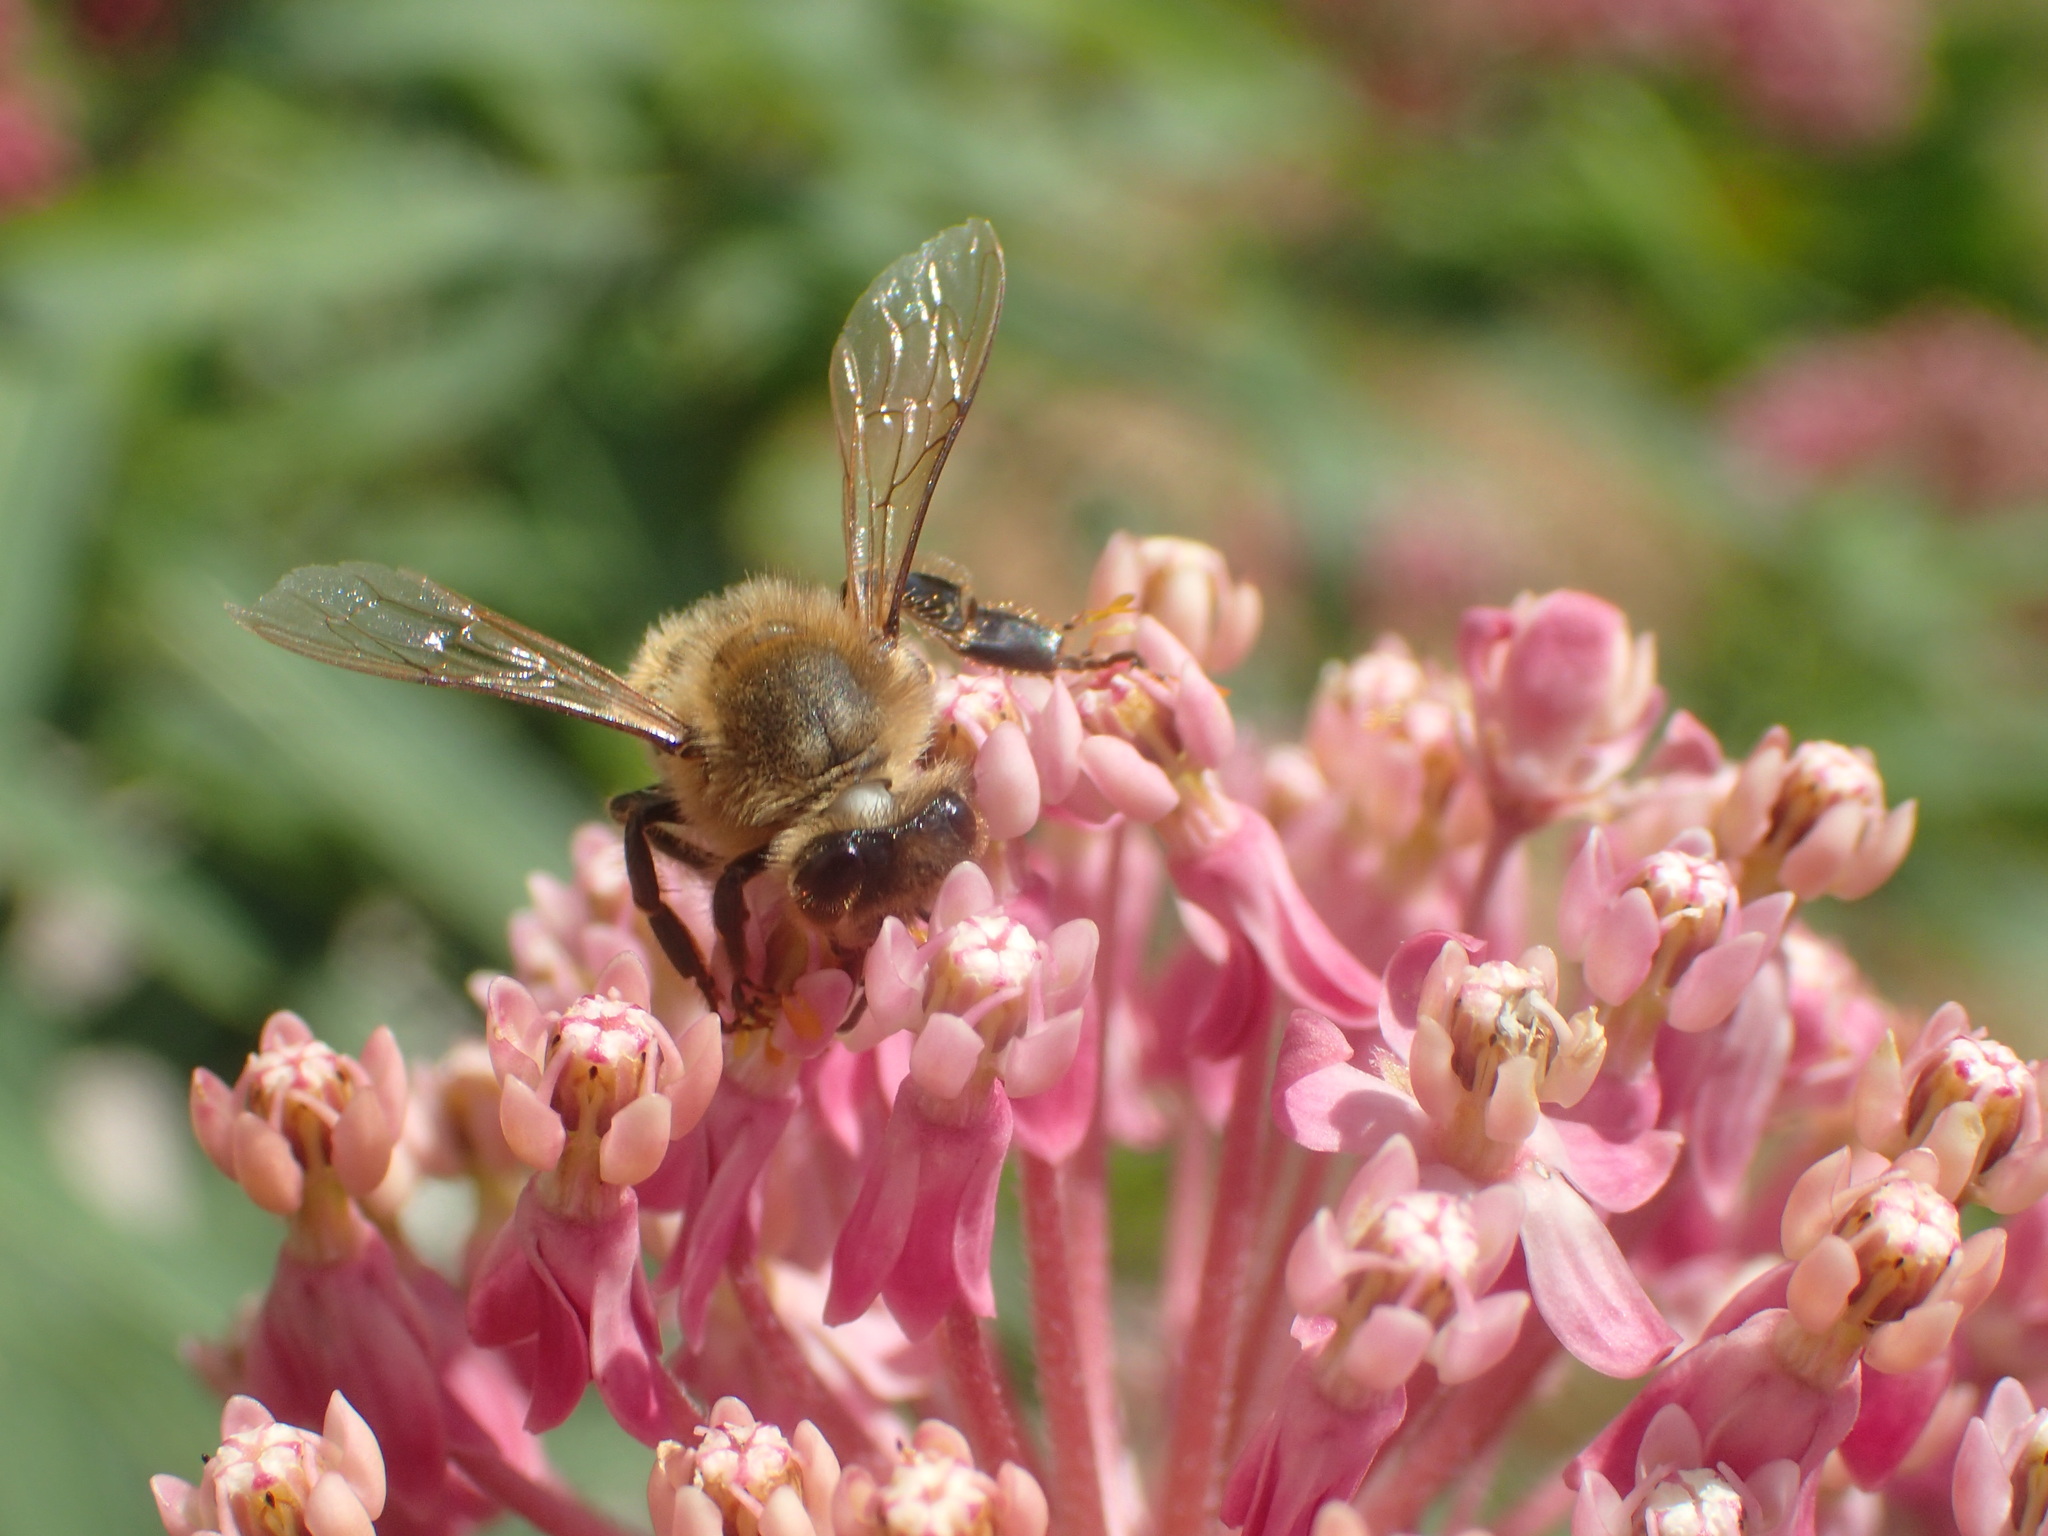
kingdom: Animalia
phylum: Arthropoda
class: Insecta
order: Hymenoptera
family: Apidae
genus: Apis
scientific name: Apis mellifera
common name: Honey bee
